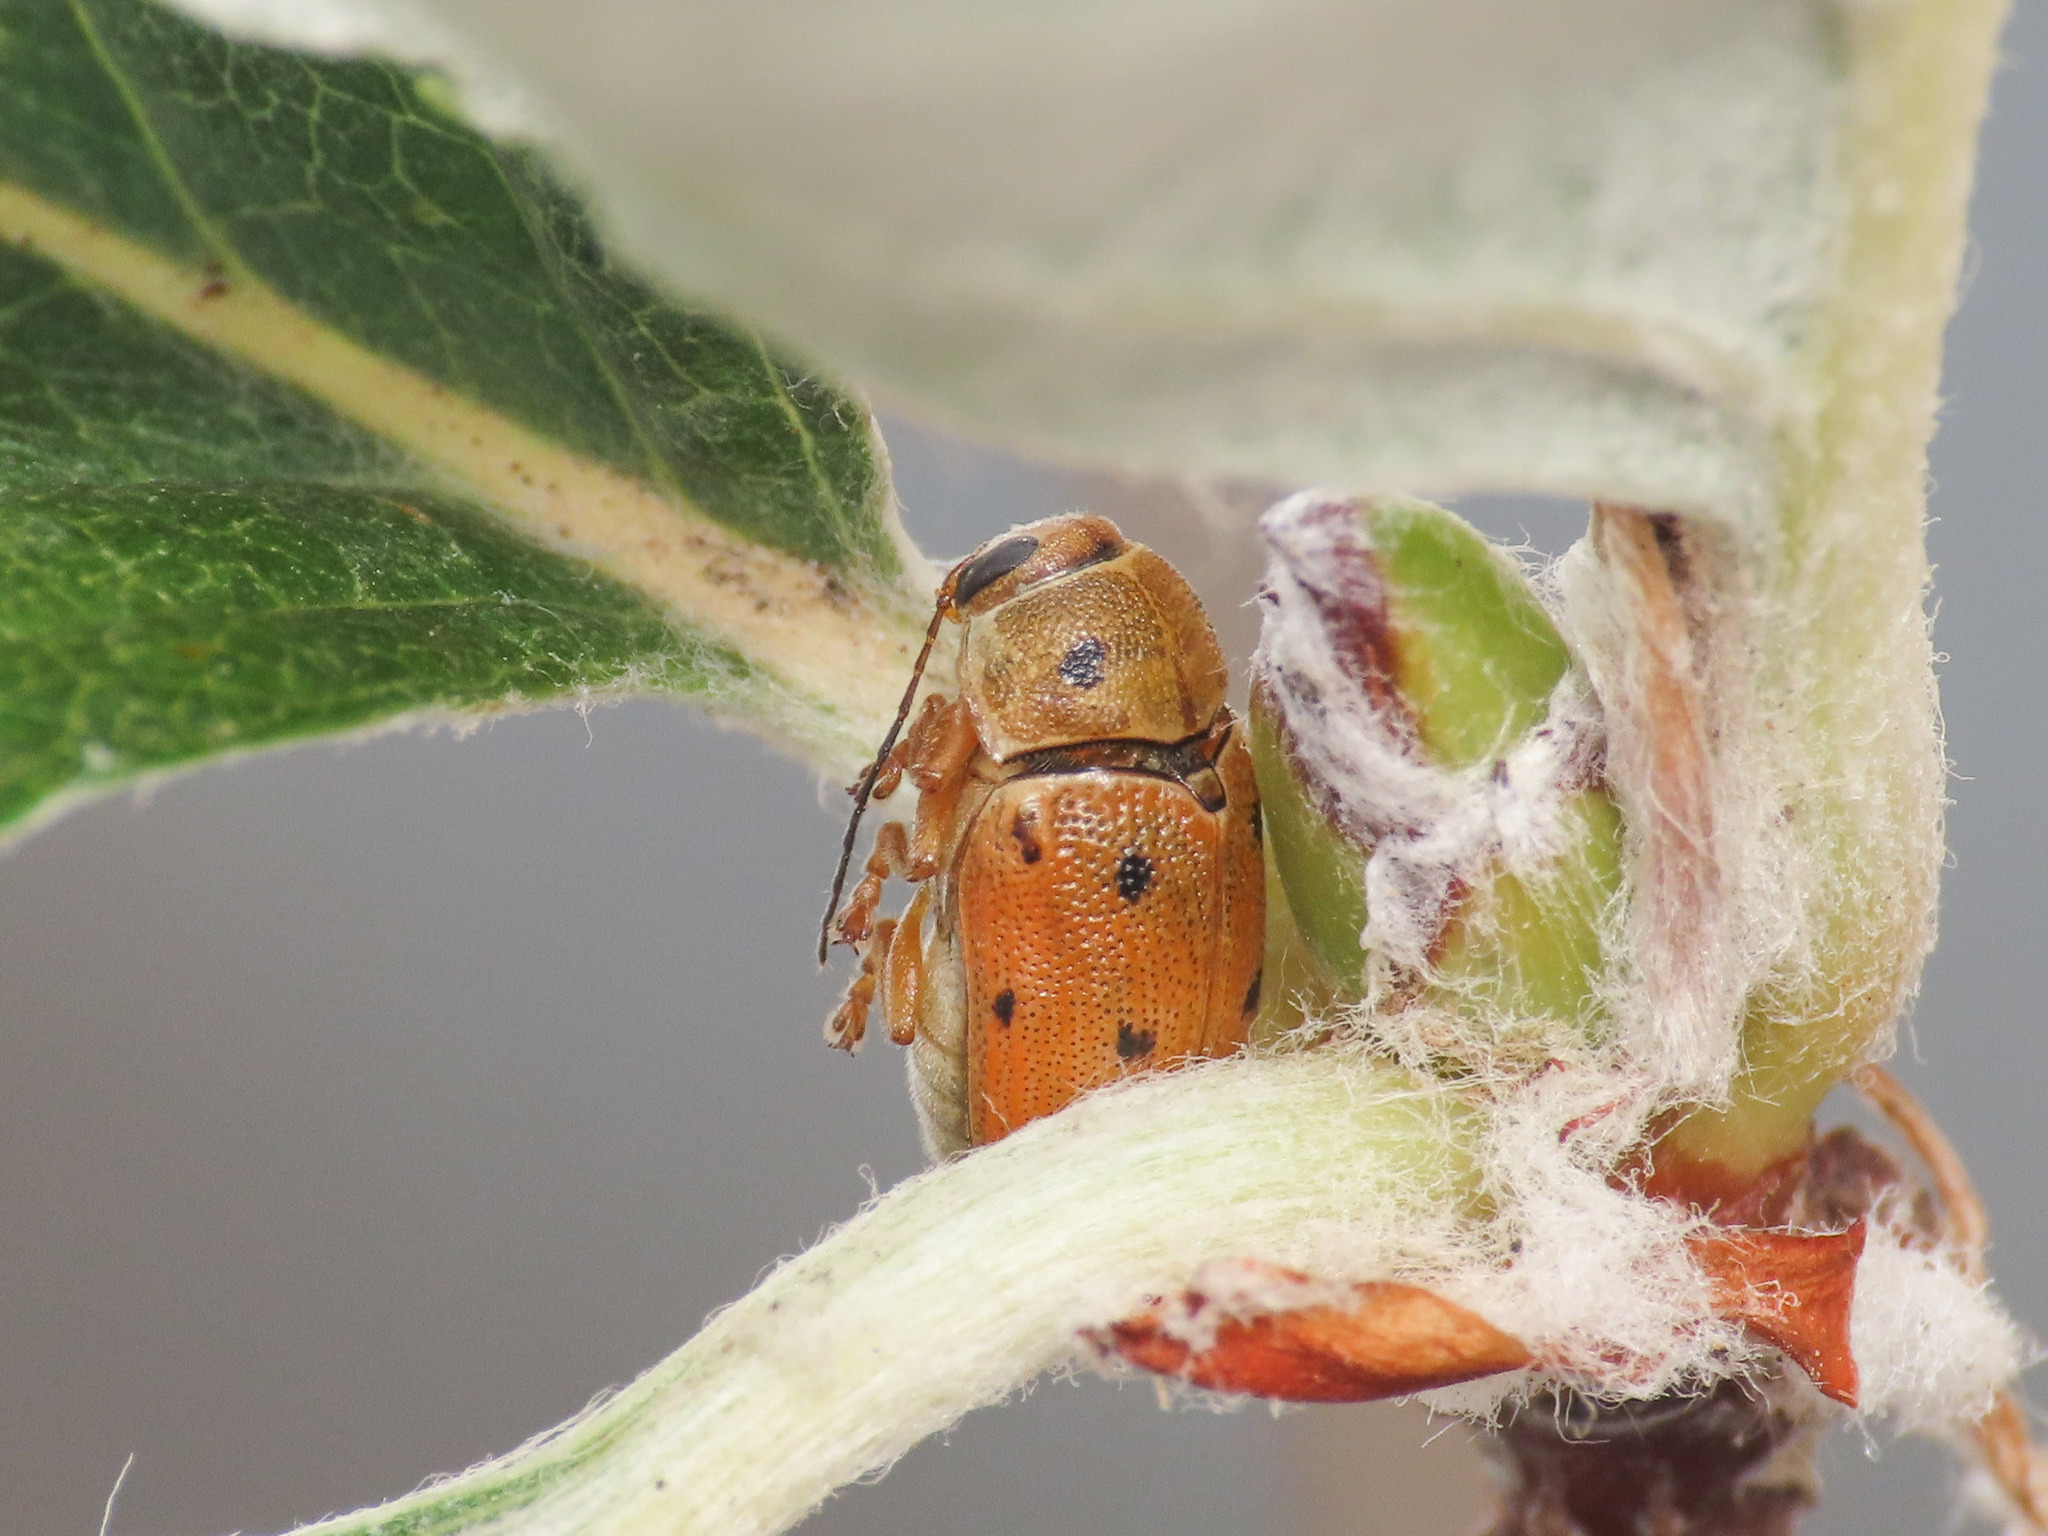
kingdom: Animalia
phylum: Arthropoda
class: Insecta
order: Coleoptera
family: Chrysomelidae
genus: Cryptocephalus
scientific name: Cryptocephalus octomaculatus
